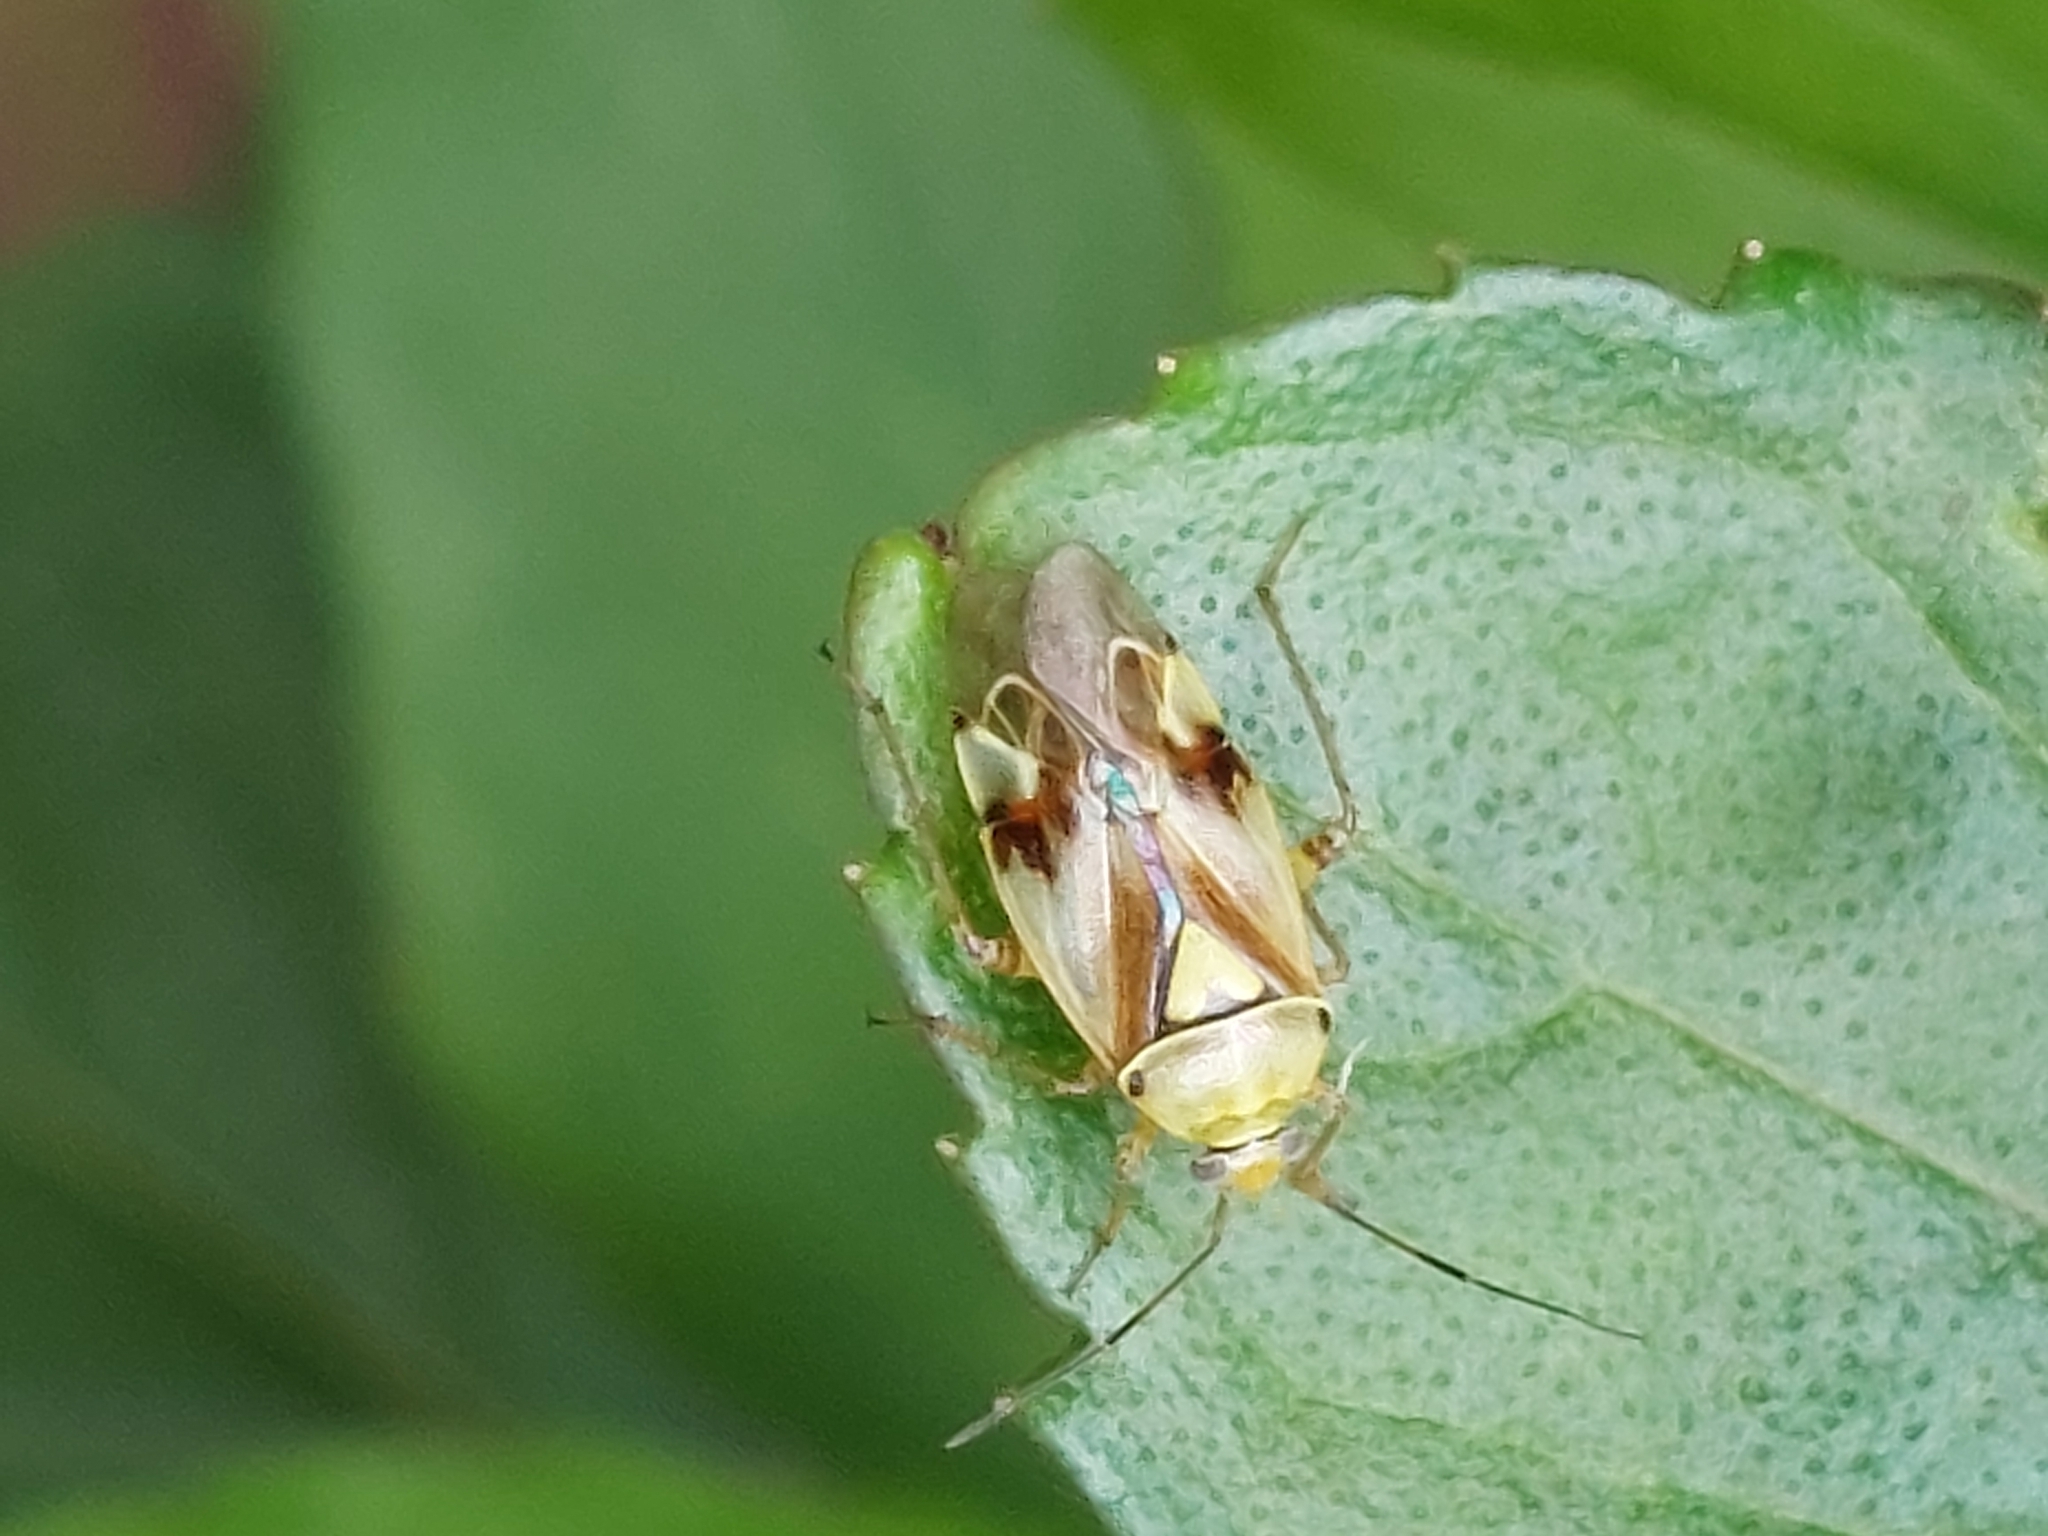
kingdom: Animalia
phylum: Arthropoda
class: Insecta
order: Hemiptera
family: Miridae
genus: Lygus
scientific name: Lygus pratensis
